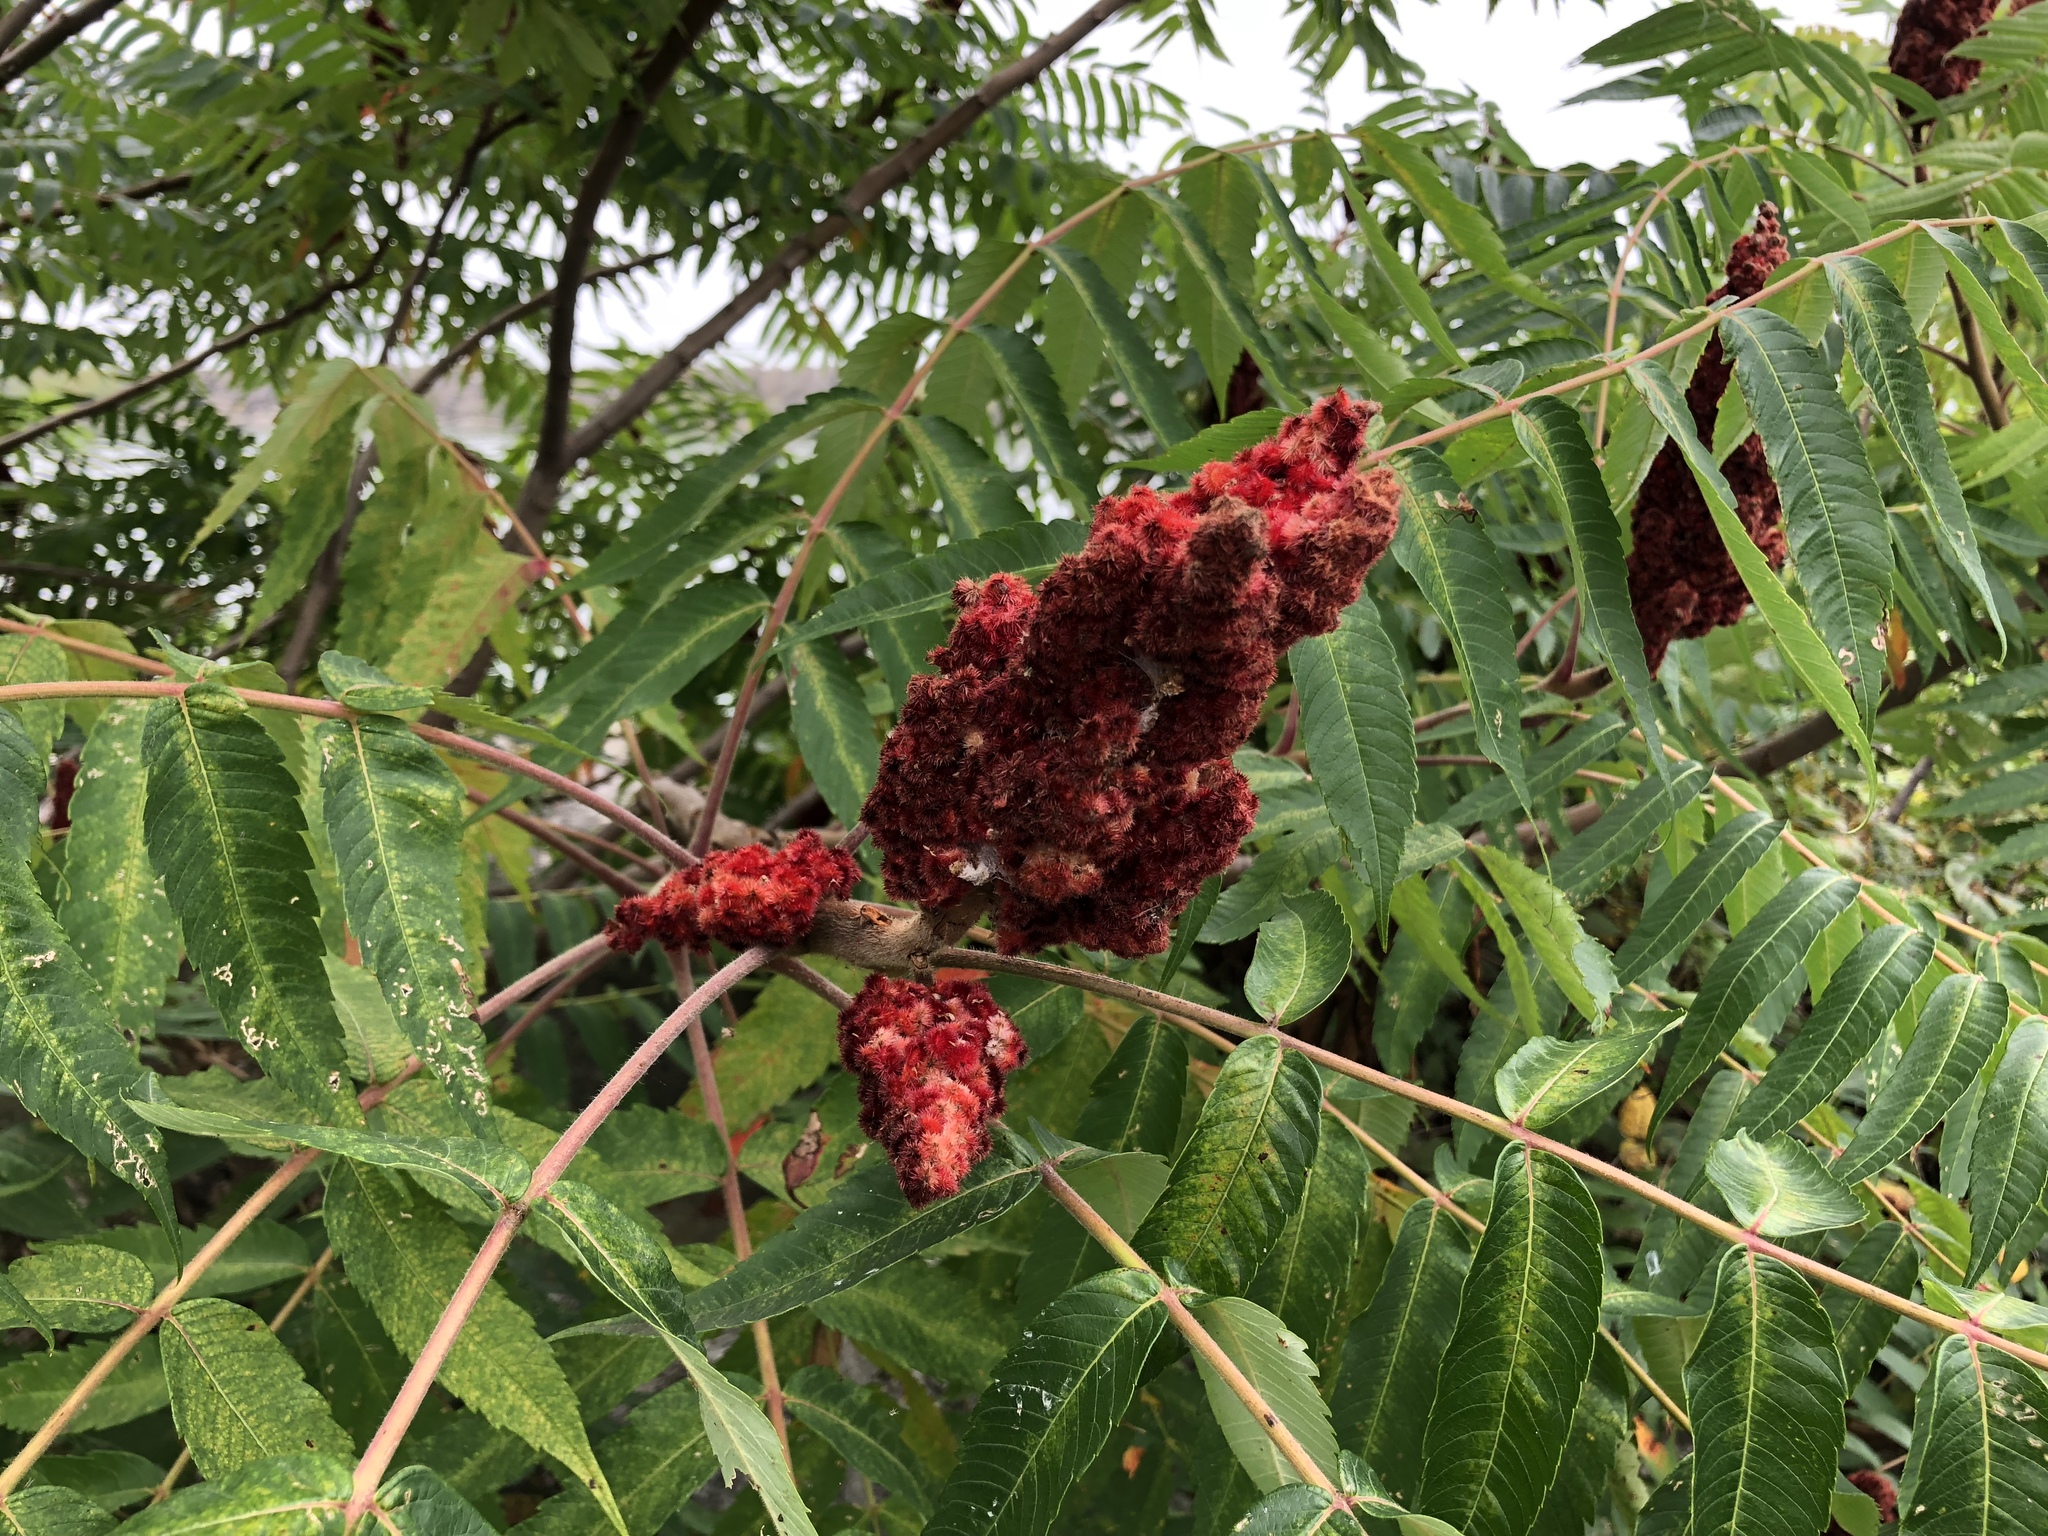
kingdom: Plantae
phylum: Tracheophyta
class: Magnoliopsida
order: Sapindales
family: Anacardiaceae
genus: Rhus
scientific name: Rhus typhina
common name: Staghorn sumac
